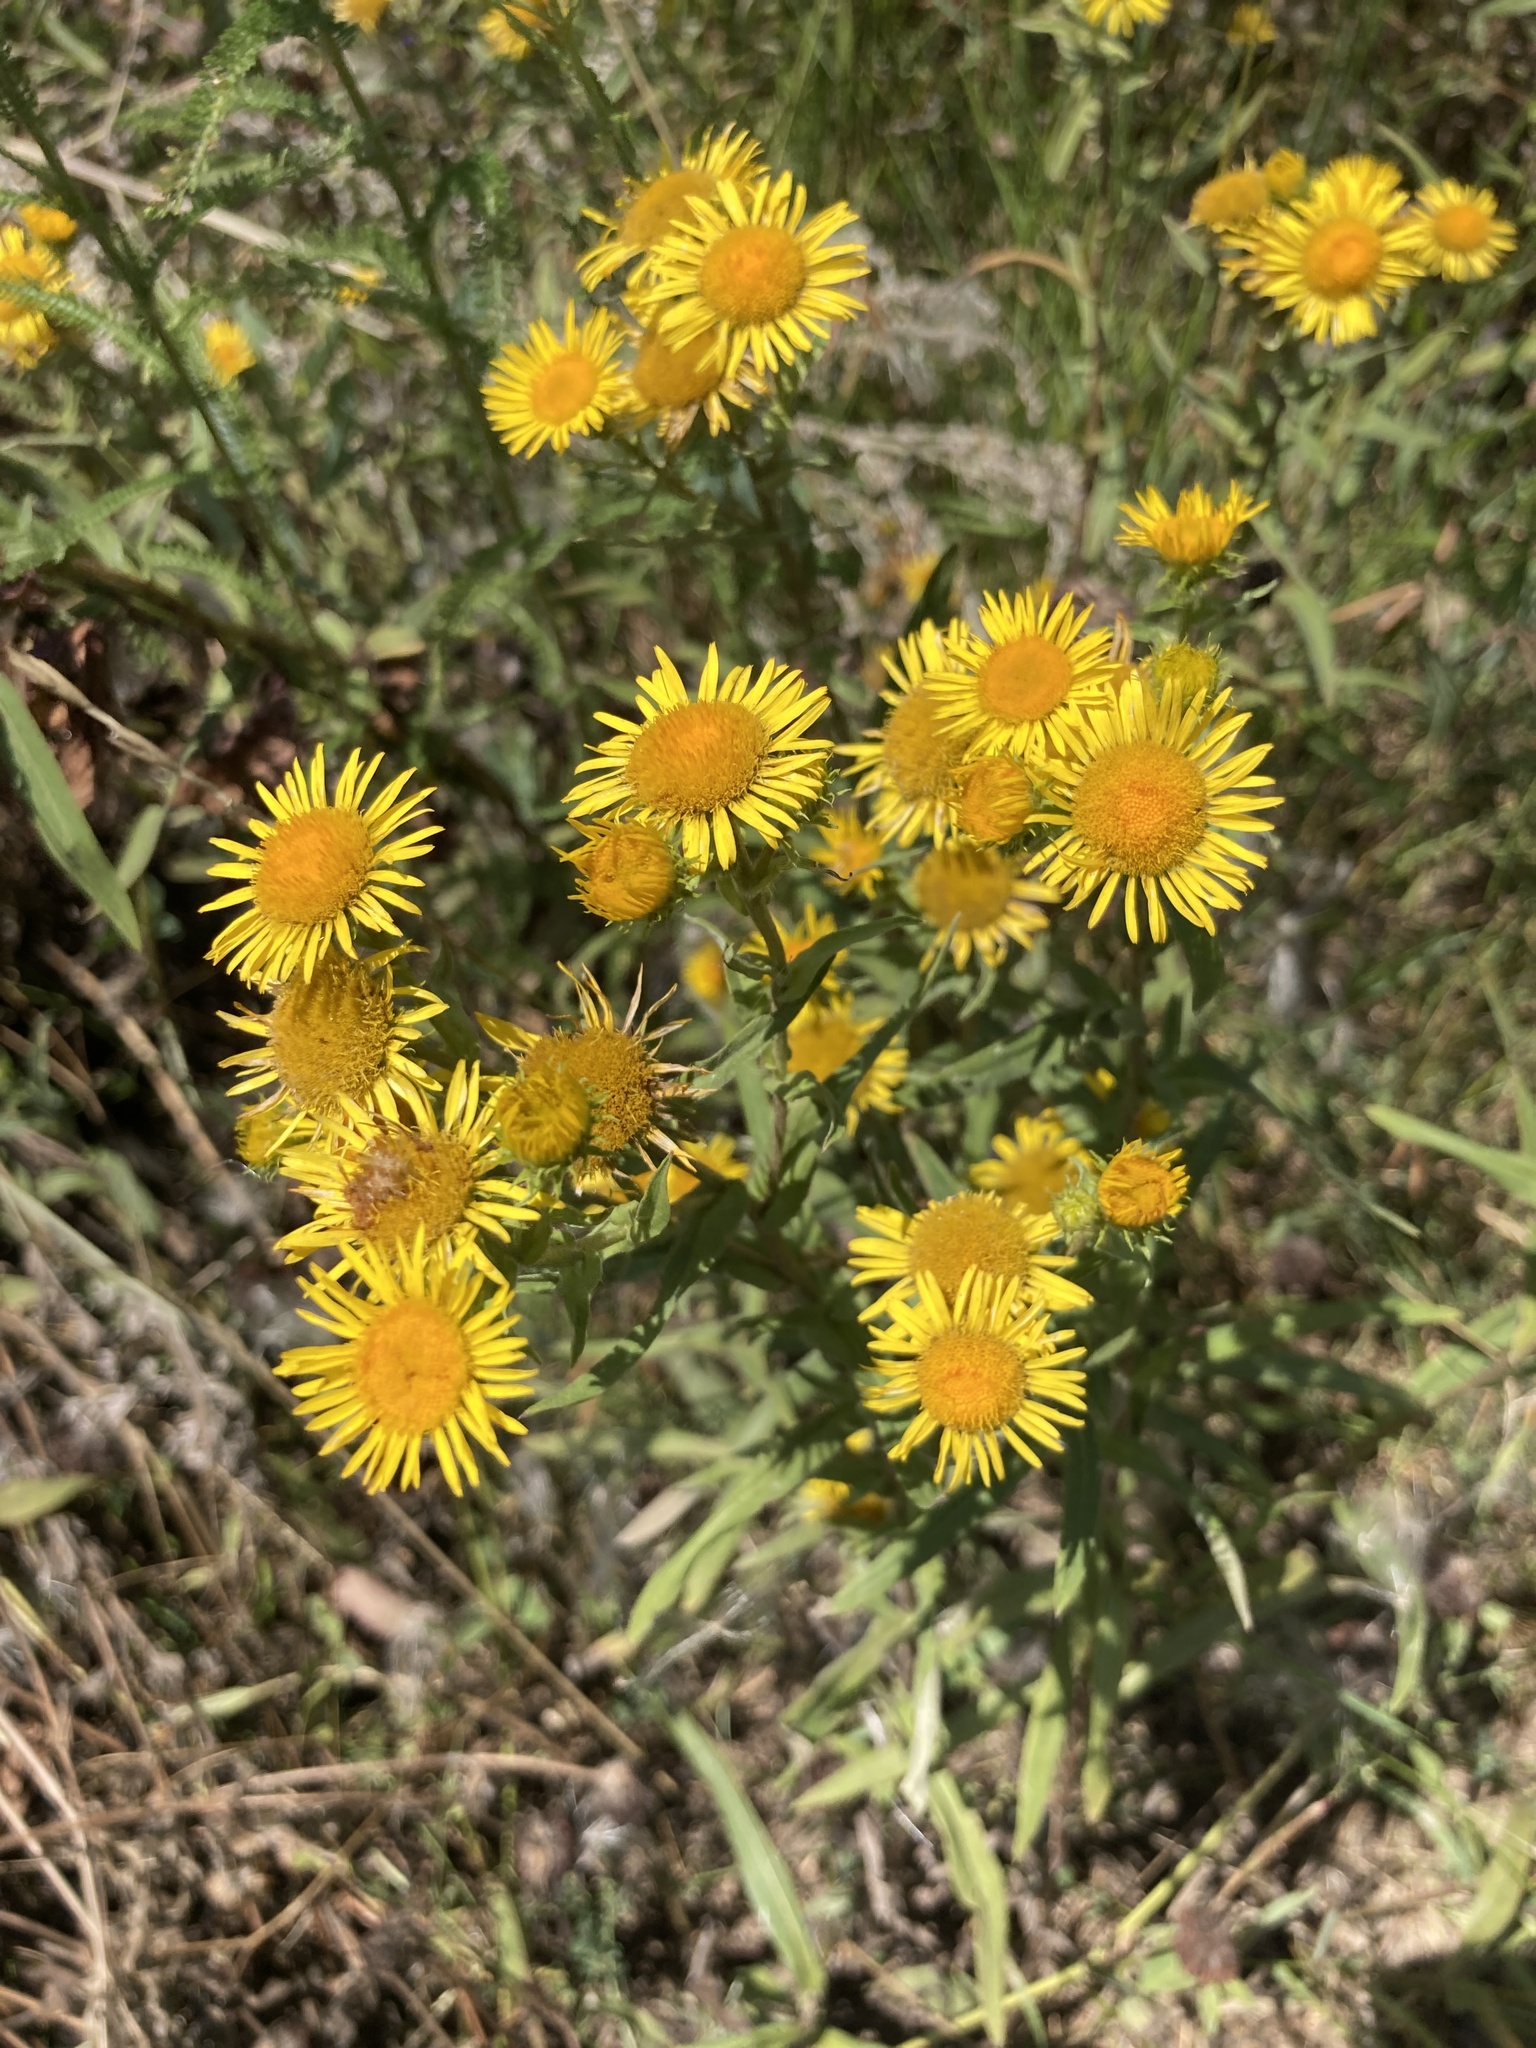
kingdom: Plantae
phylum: Tracheophyta
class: Magnoliopsida
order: Asterales
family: Asteraceae
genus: Pentanema
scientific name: Pentanema britannicum
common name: British elecampane
